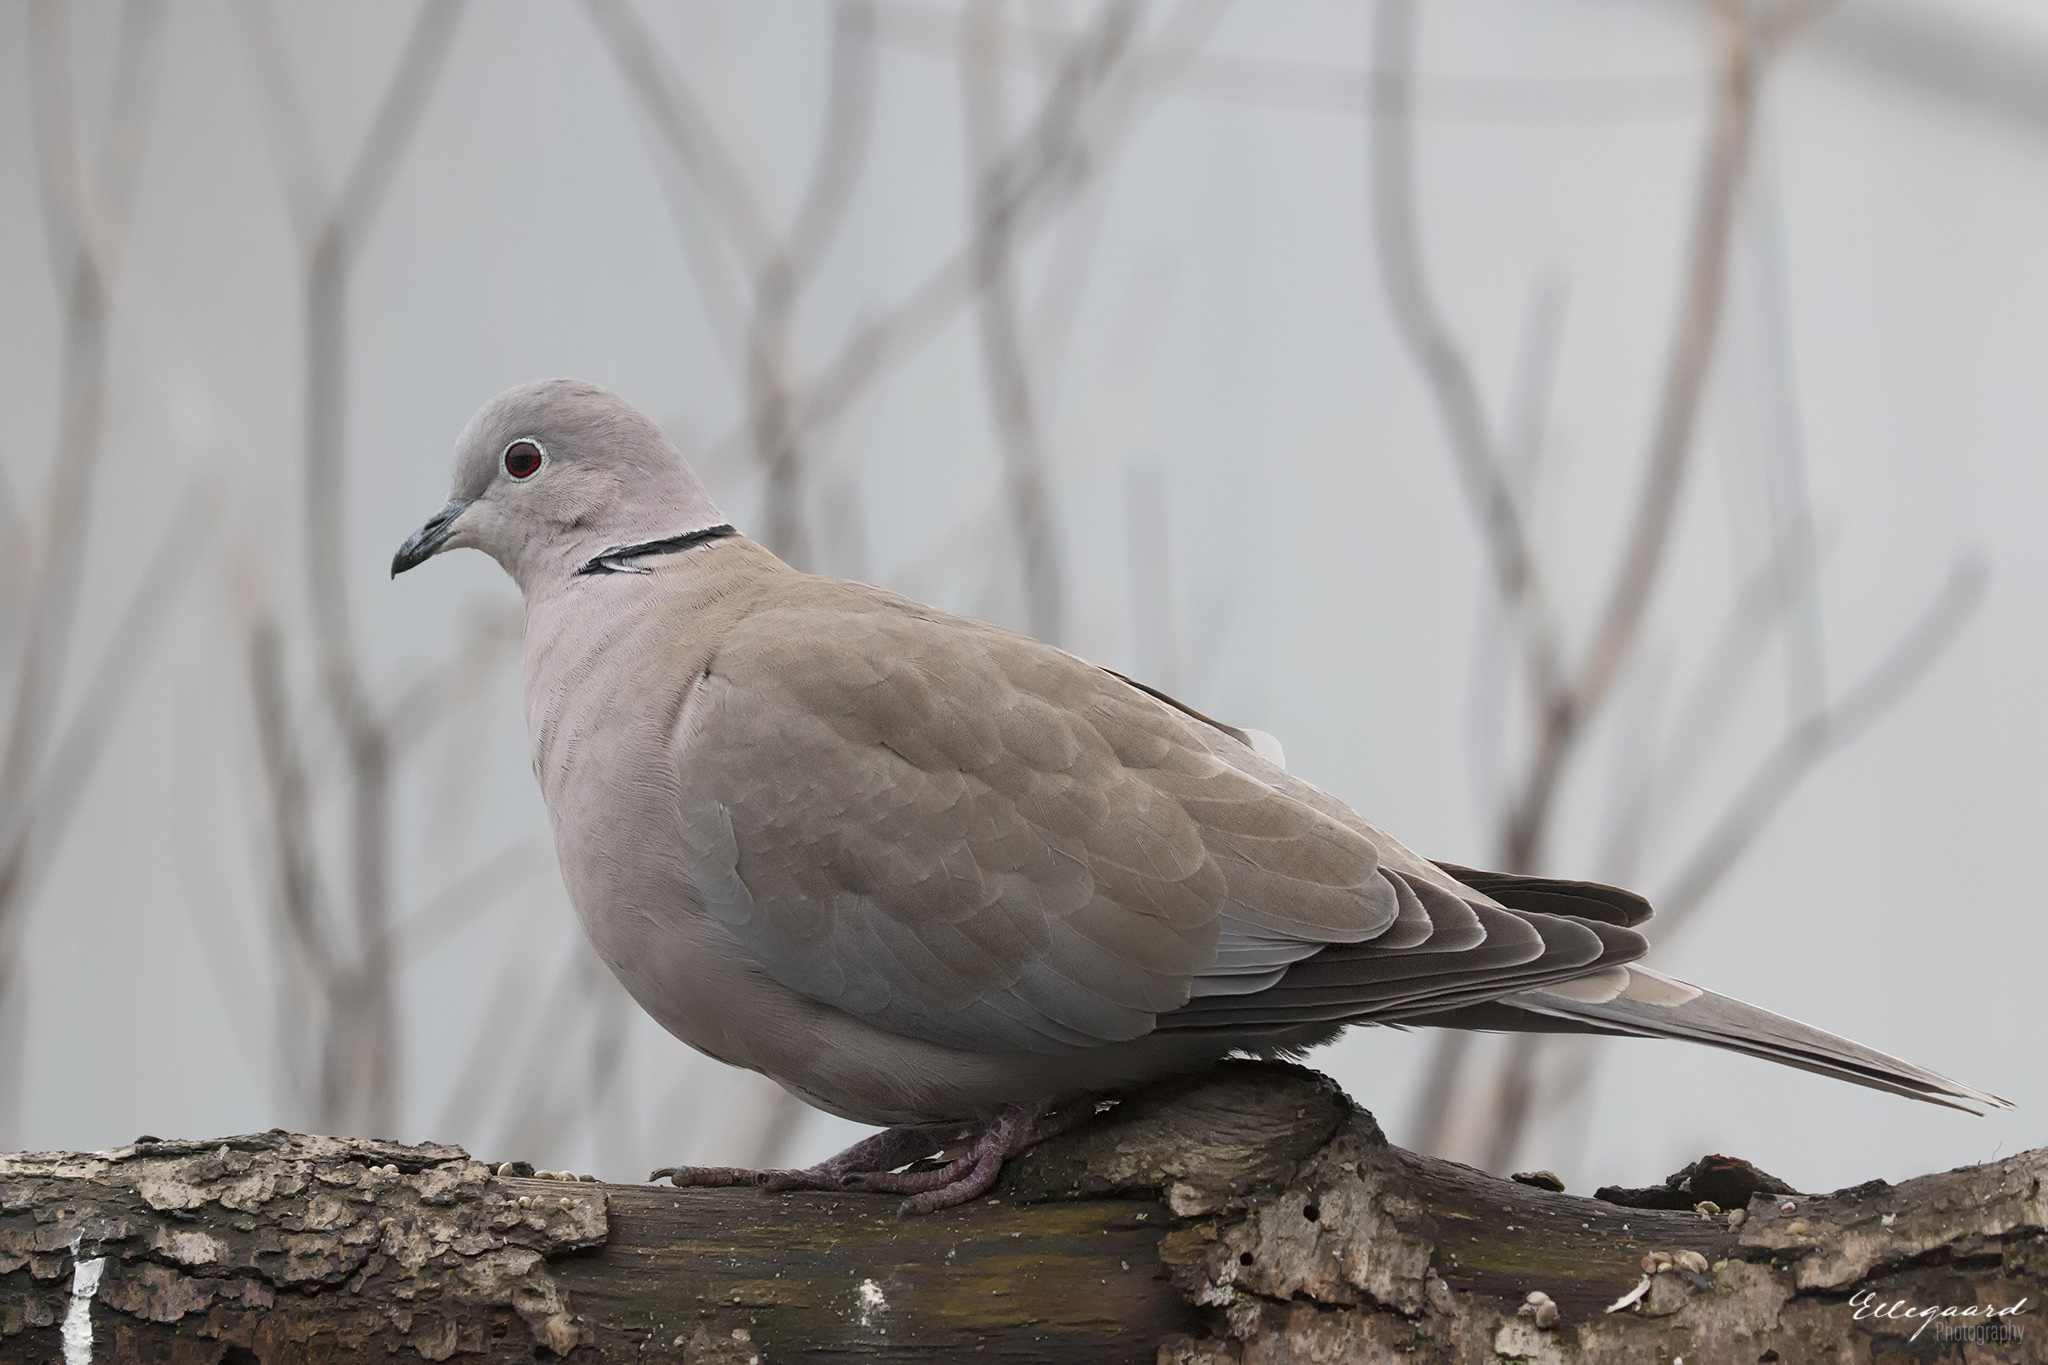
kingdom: Animalia
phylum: Chordata
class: Aves
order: Columbiformes
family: Columbidae
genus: Streptopelia
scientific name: Streptopelia decaocto
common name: Eurasian collared dove
